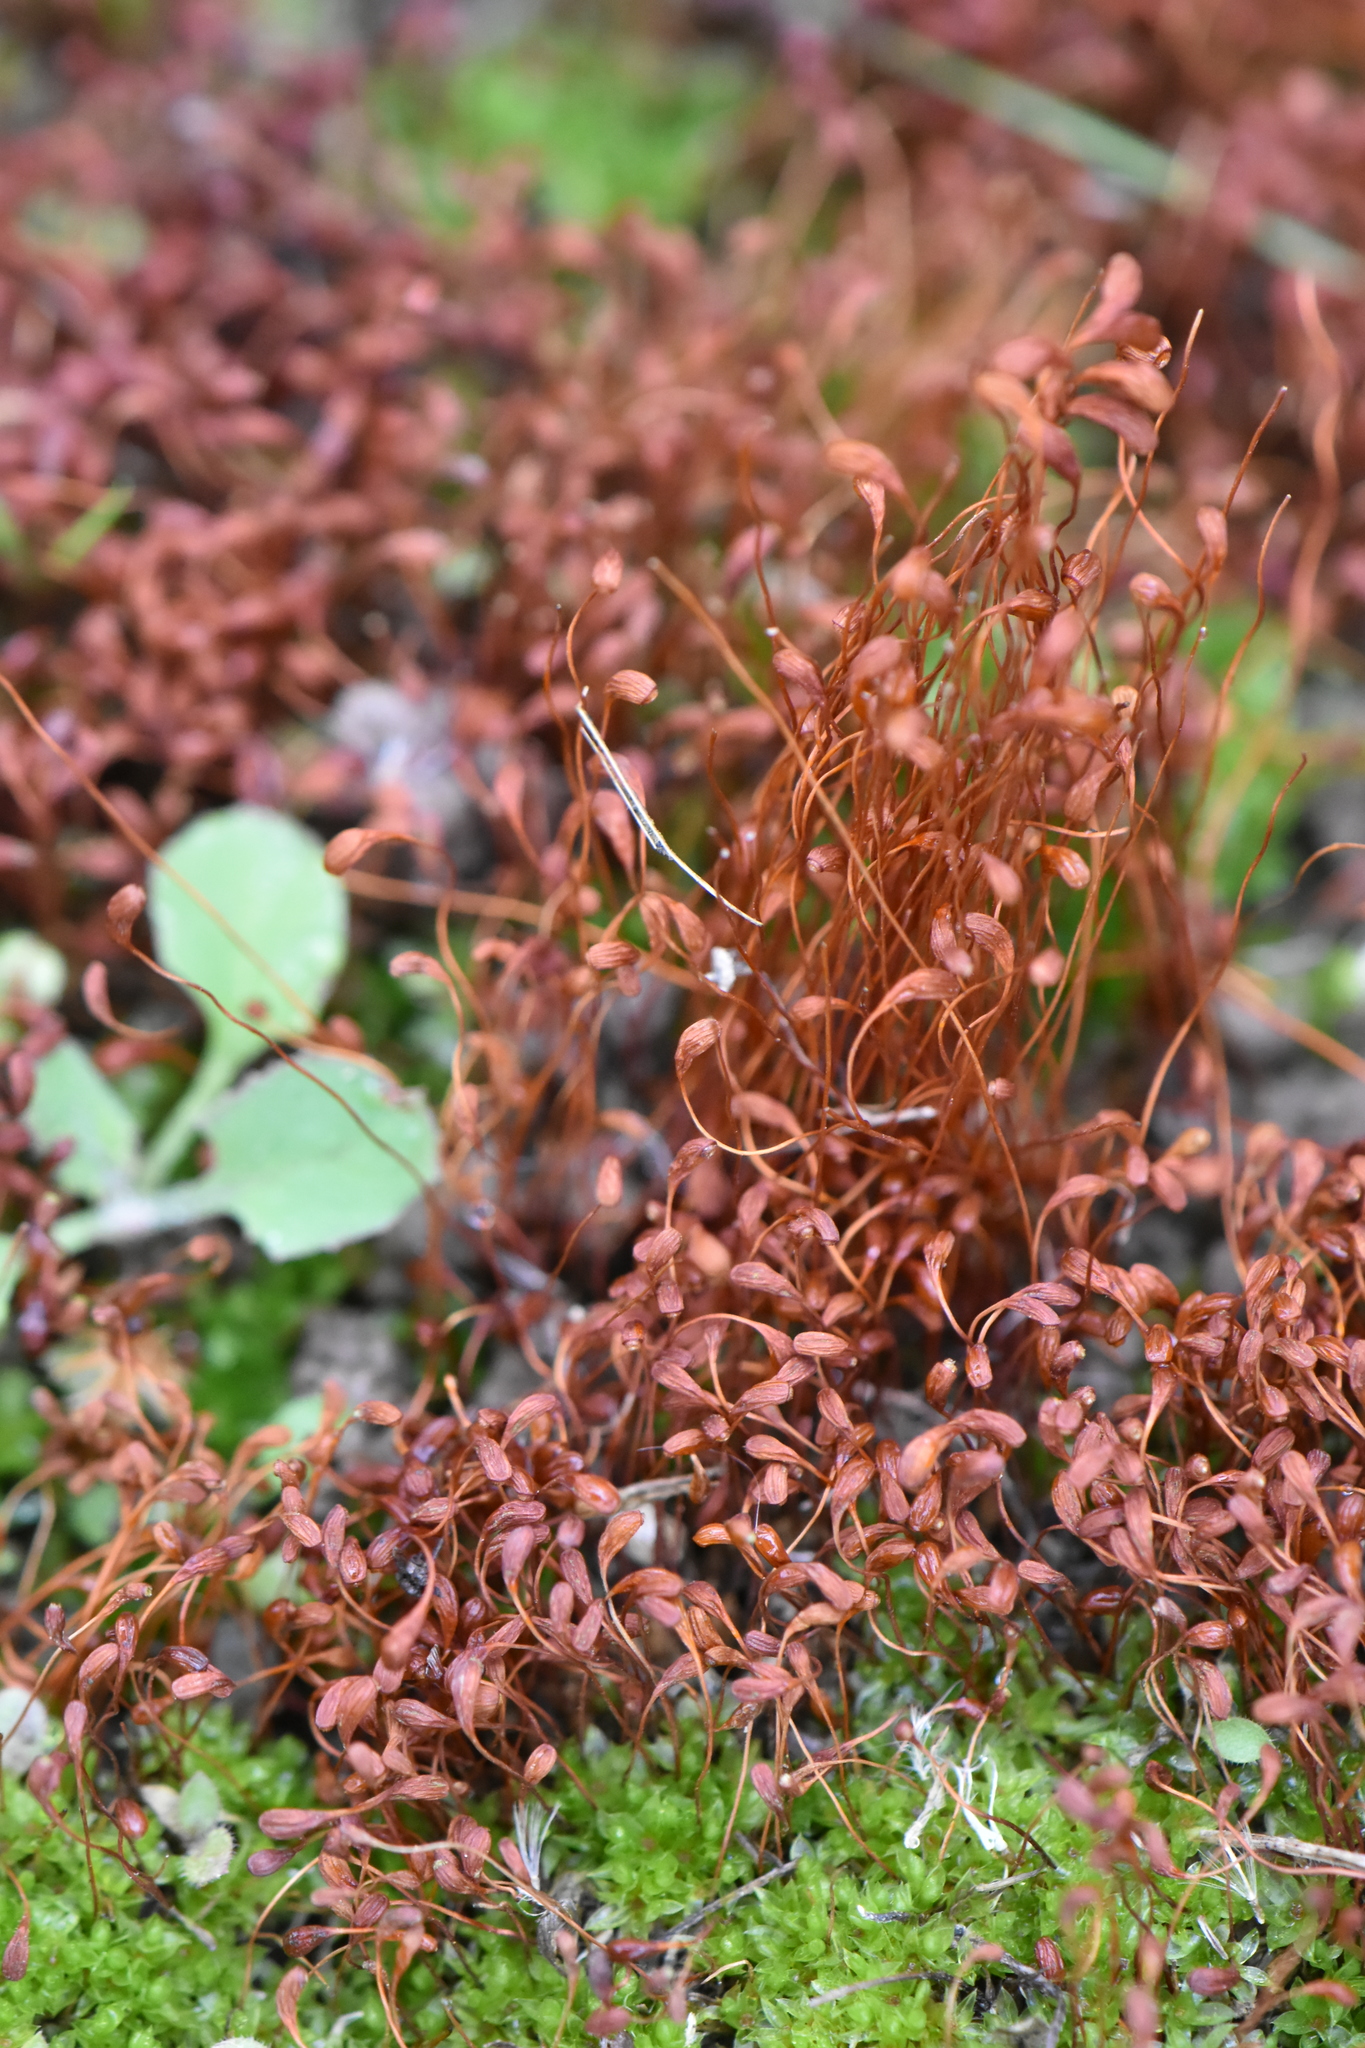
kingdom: Plantae
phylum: Bryophyta
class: Bryopsida
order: Funariales
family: Funariaceae
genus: Funaria
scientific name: Funaria hygrometrica
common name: Common cord moss
